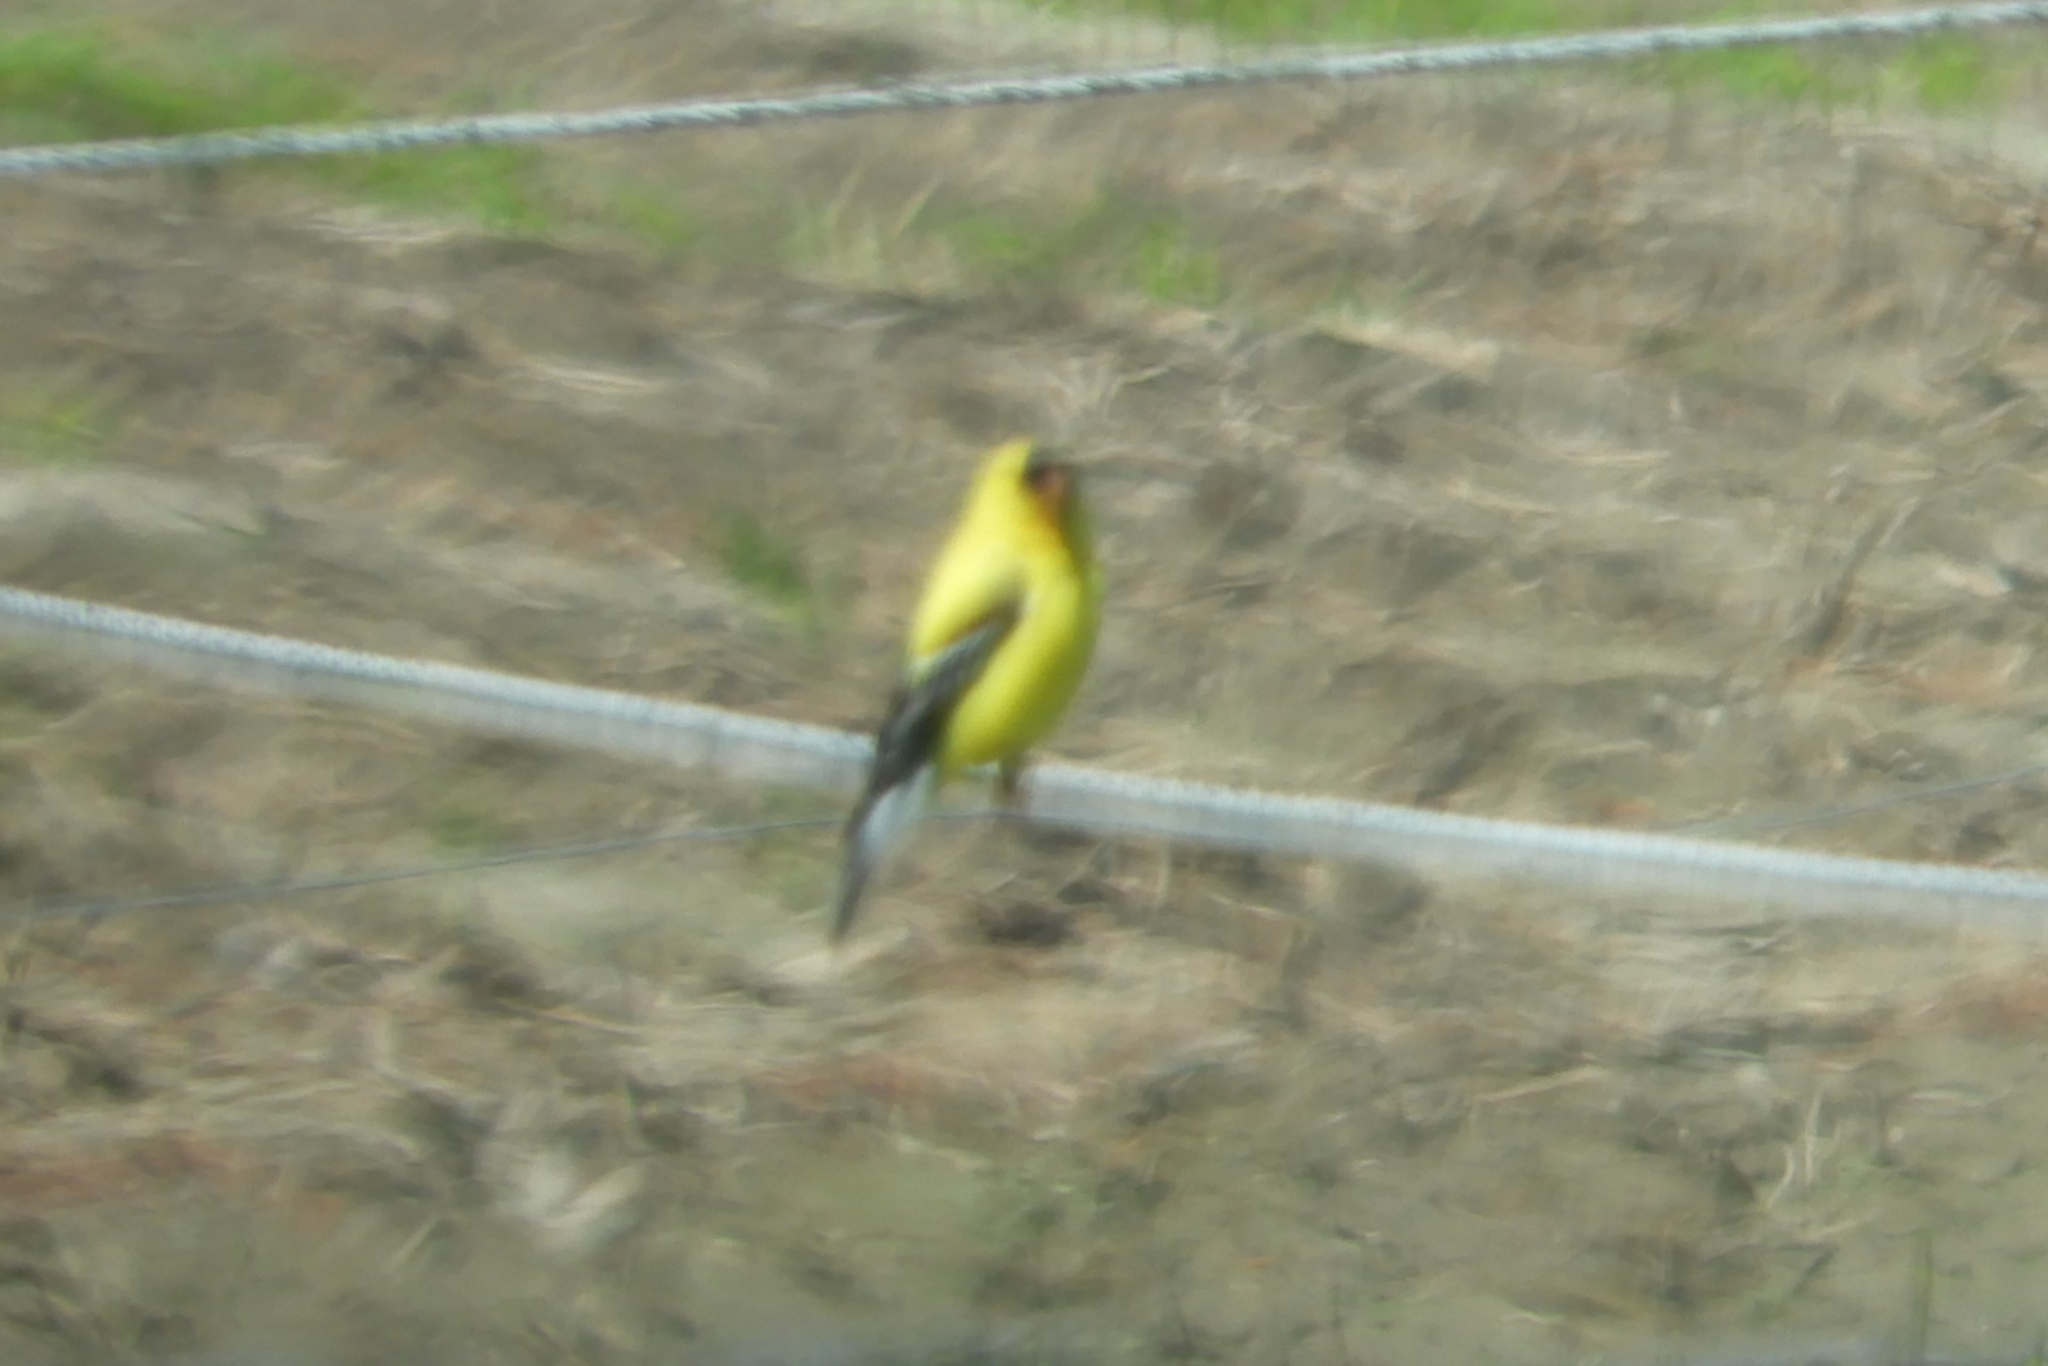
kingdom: Animalia
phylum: Chordata
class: Aves
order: Passeriformes
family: Fringillidae
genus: Spinus
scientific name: Spinus tristis
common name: American goldfinch
